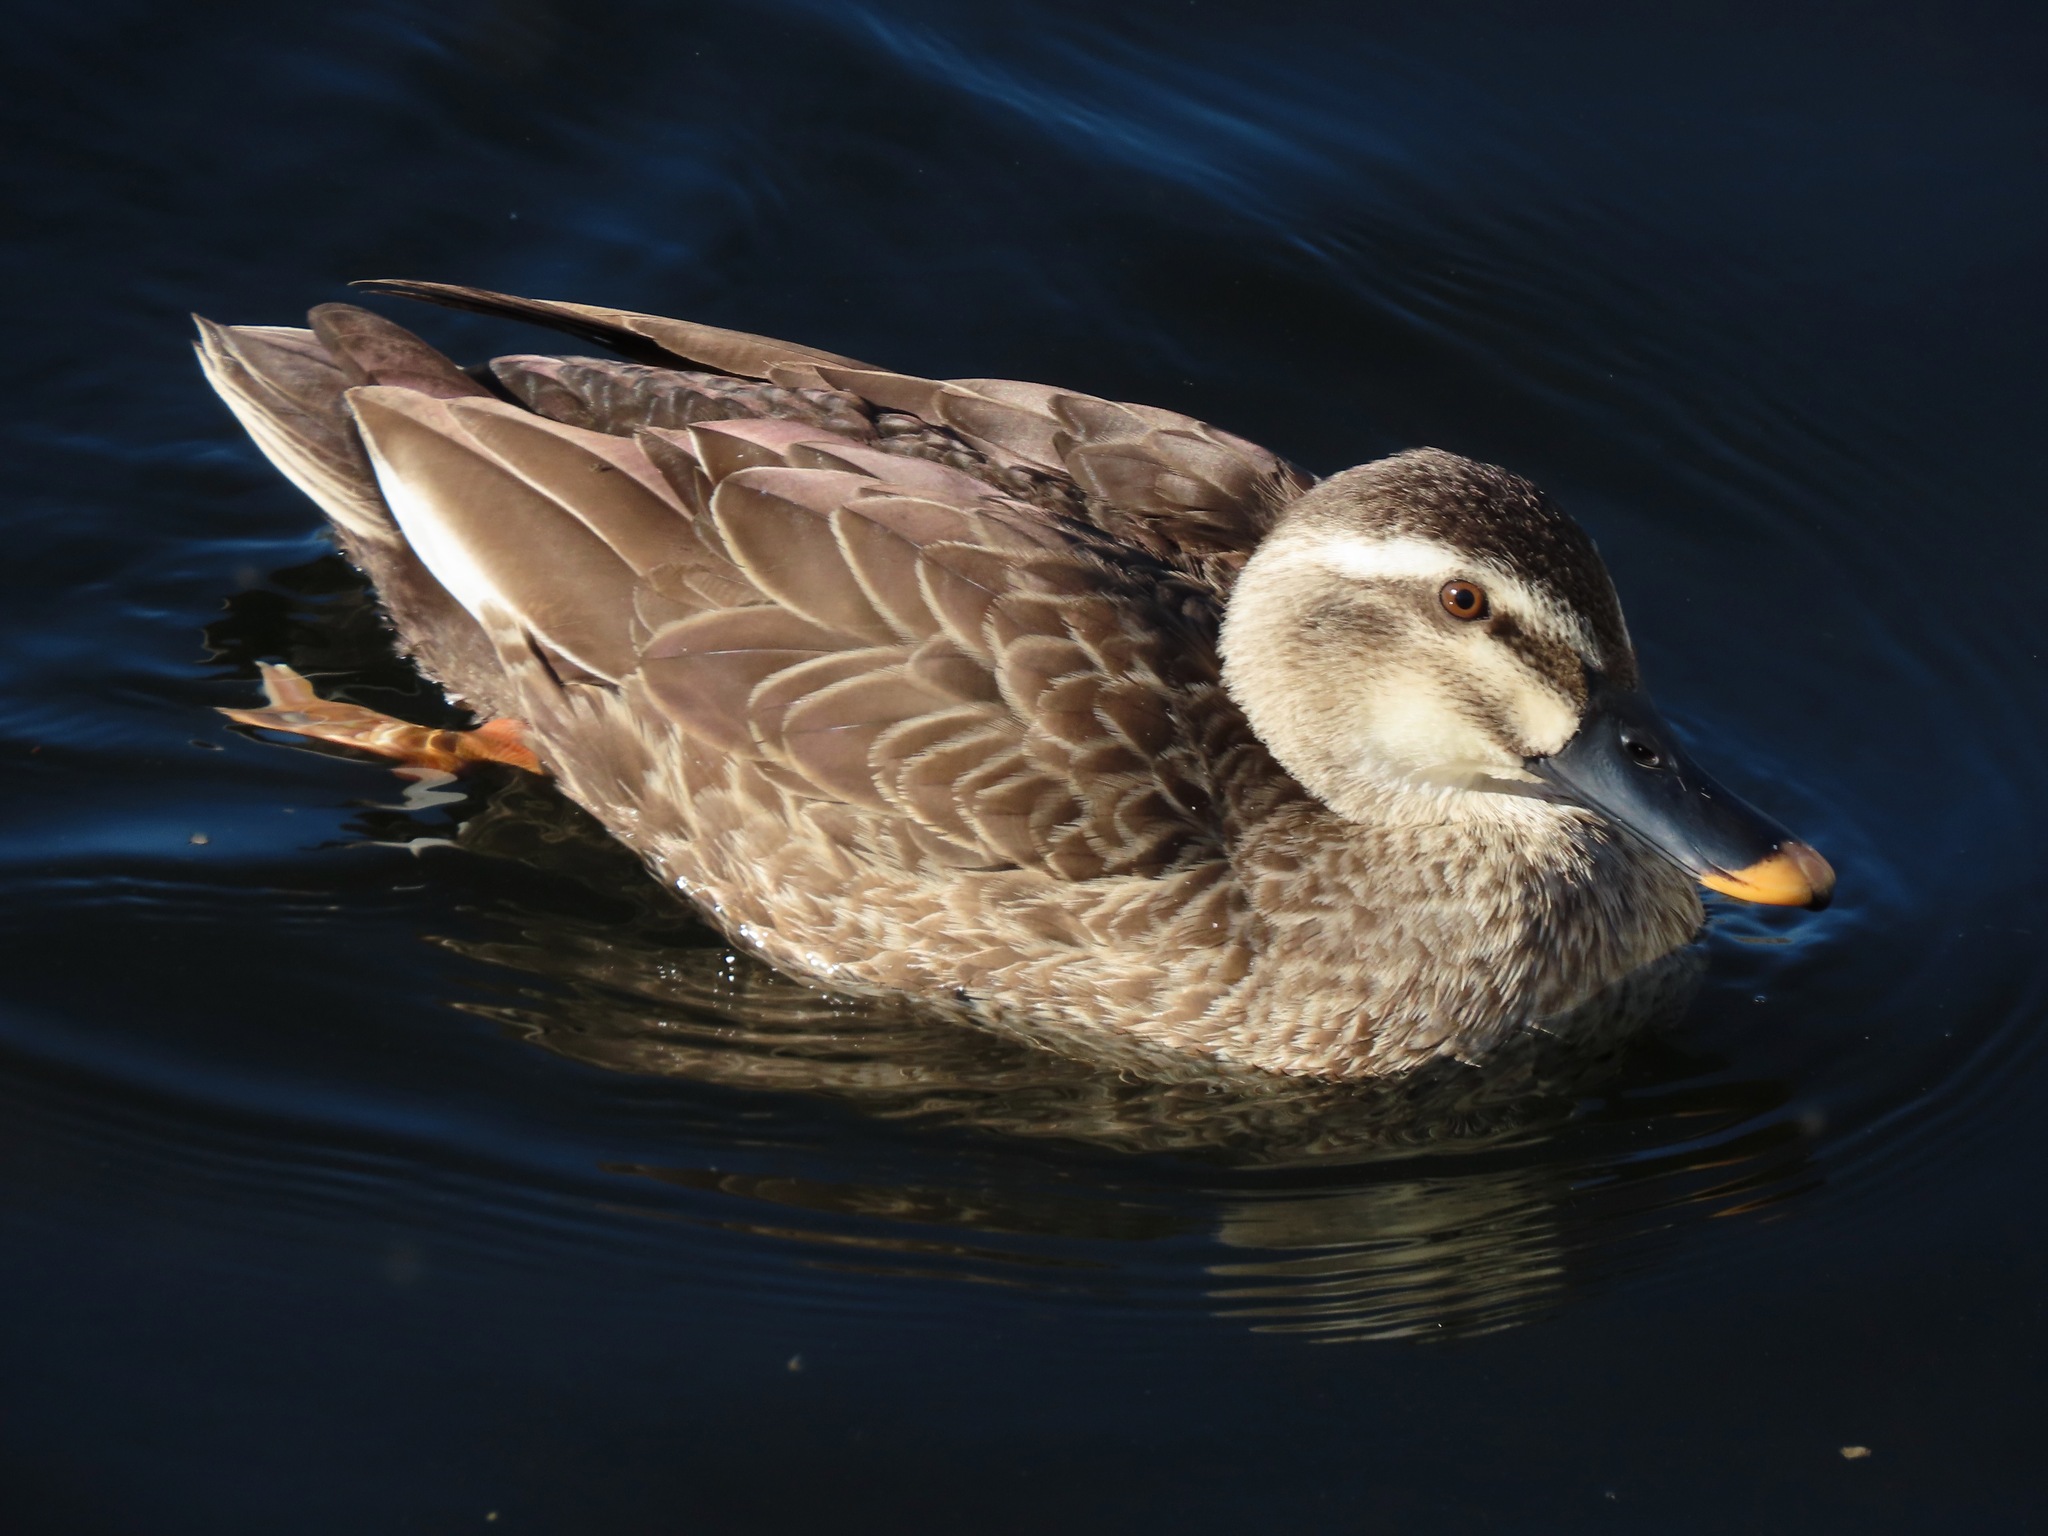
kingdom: Animalia
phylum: Chordata
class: Aves
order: Anseriformes
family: Anatidae
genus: Anas
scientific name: Anas zonorhyncha
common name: Eastern spot-billed duck
